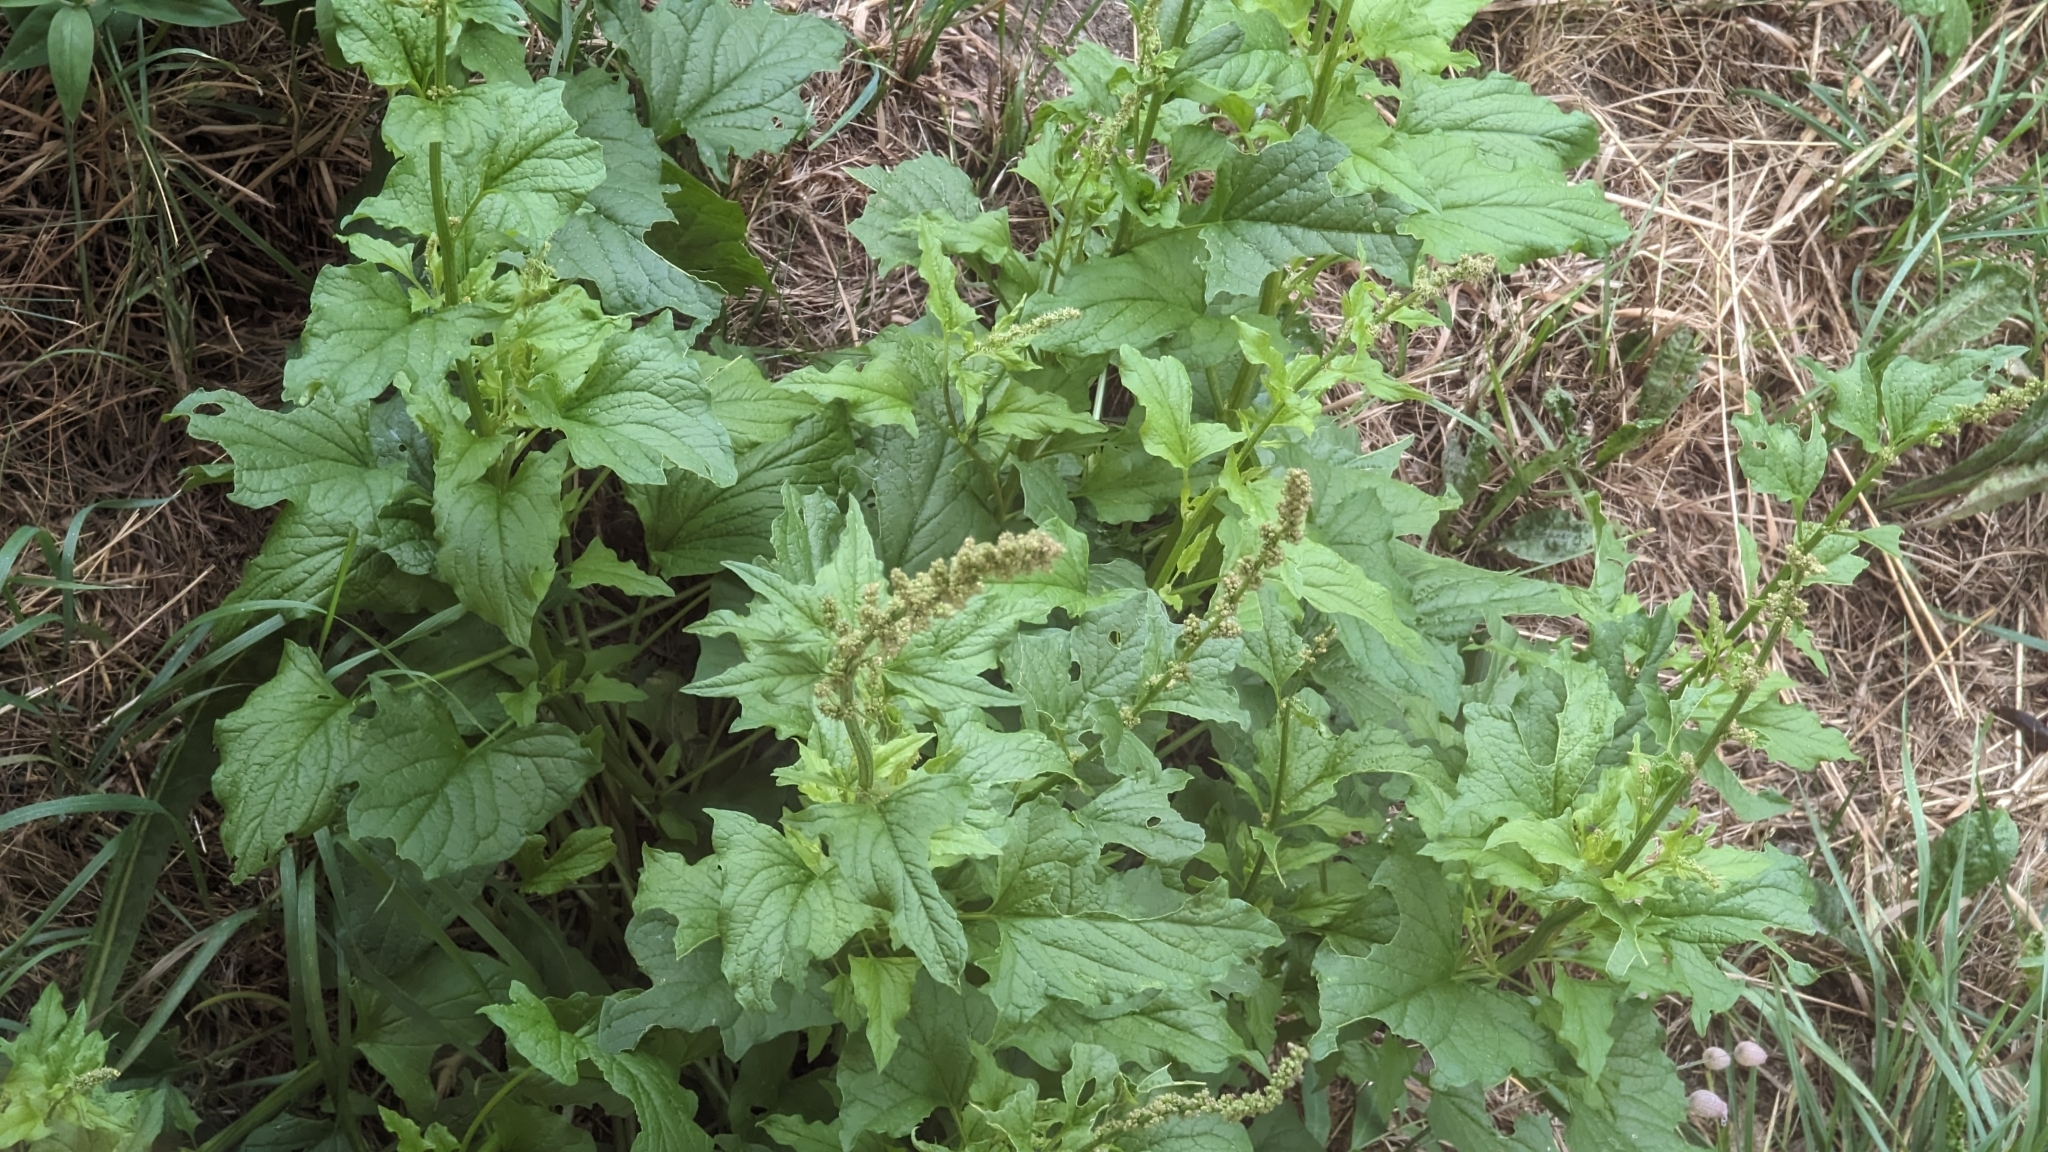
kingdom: Plantae
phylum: Tracheophyta
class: Magnoliopsida
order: Caryophyllales
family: Amaranthaceae
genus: Blitum
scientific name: Blitum bonus-henricus
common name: Good king henry
